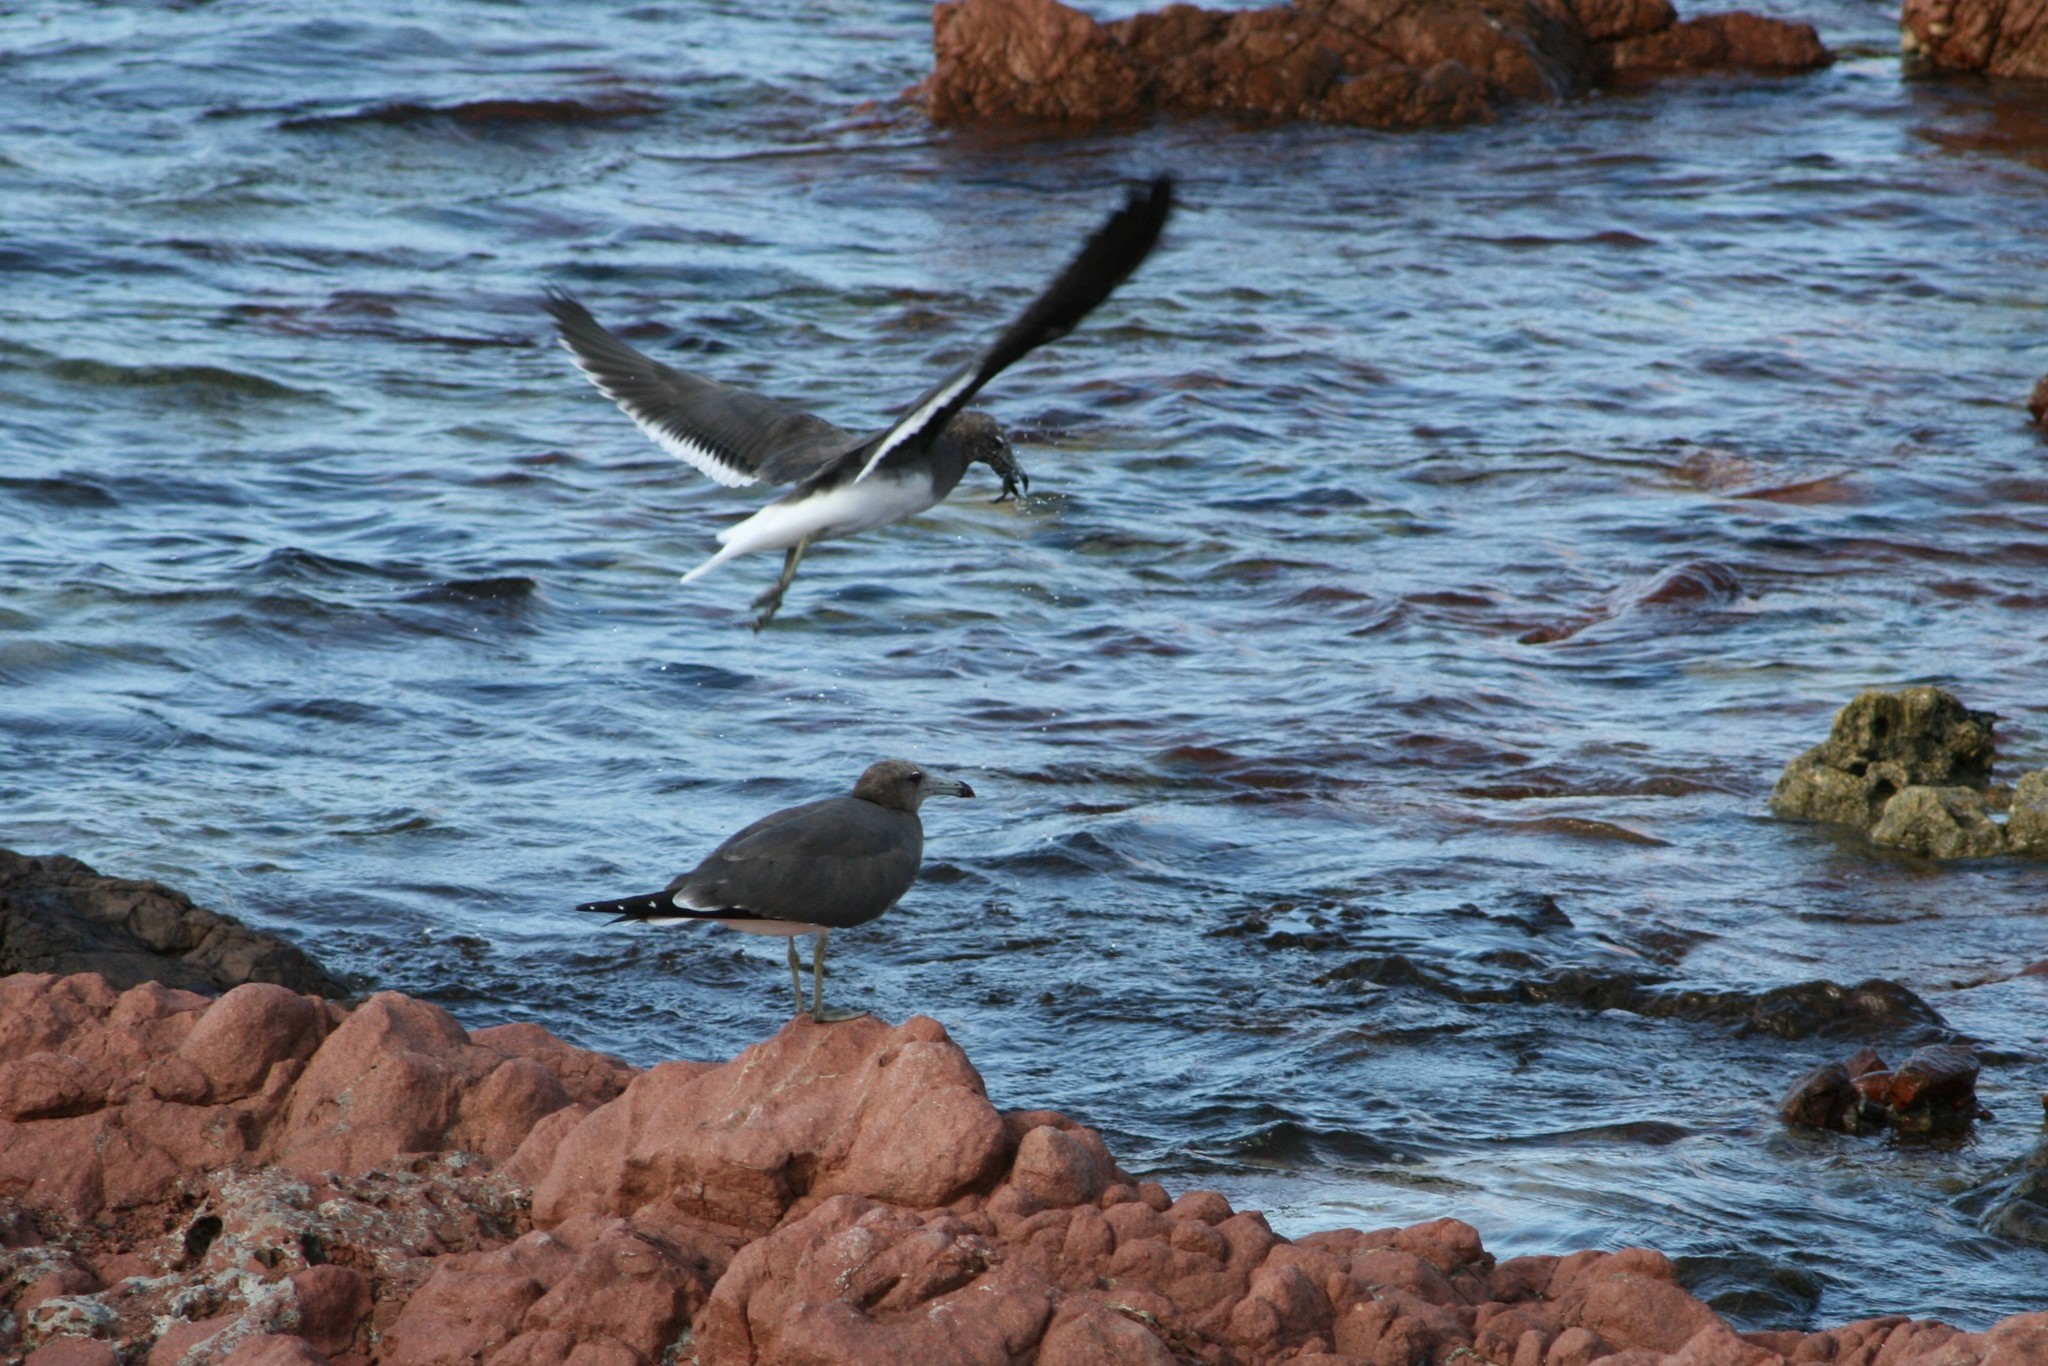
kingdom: Animalia
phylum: Chordata
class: Aves
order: Charadriiformes
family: Laridae
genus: Ichthyaetus
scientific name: Ichthyaetus hemprichii
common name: Sooty gull
